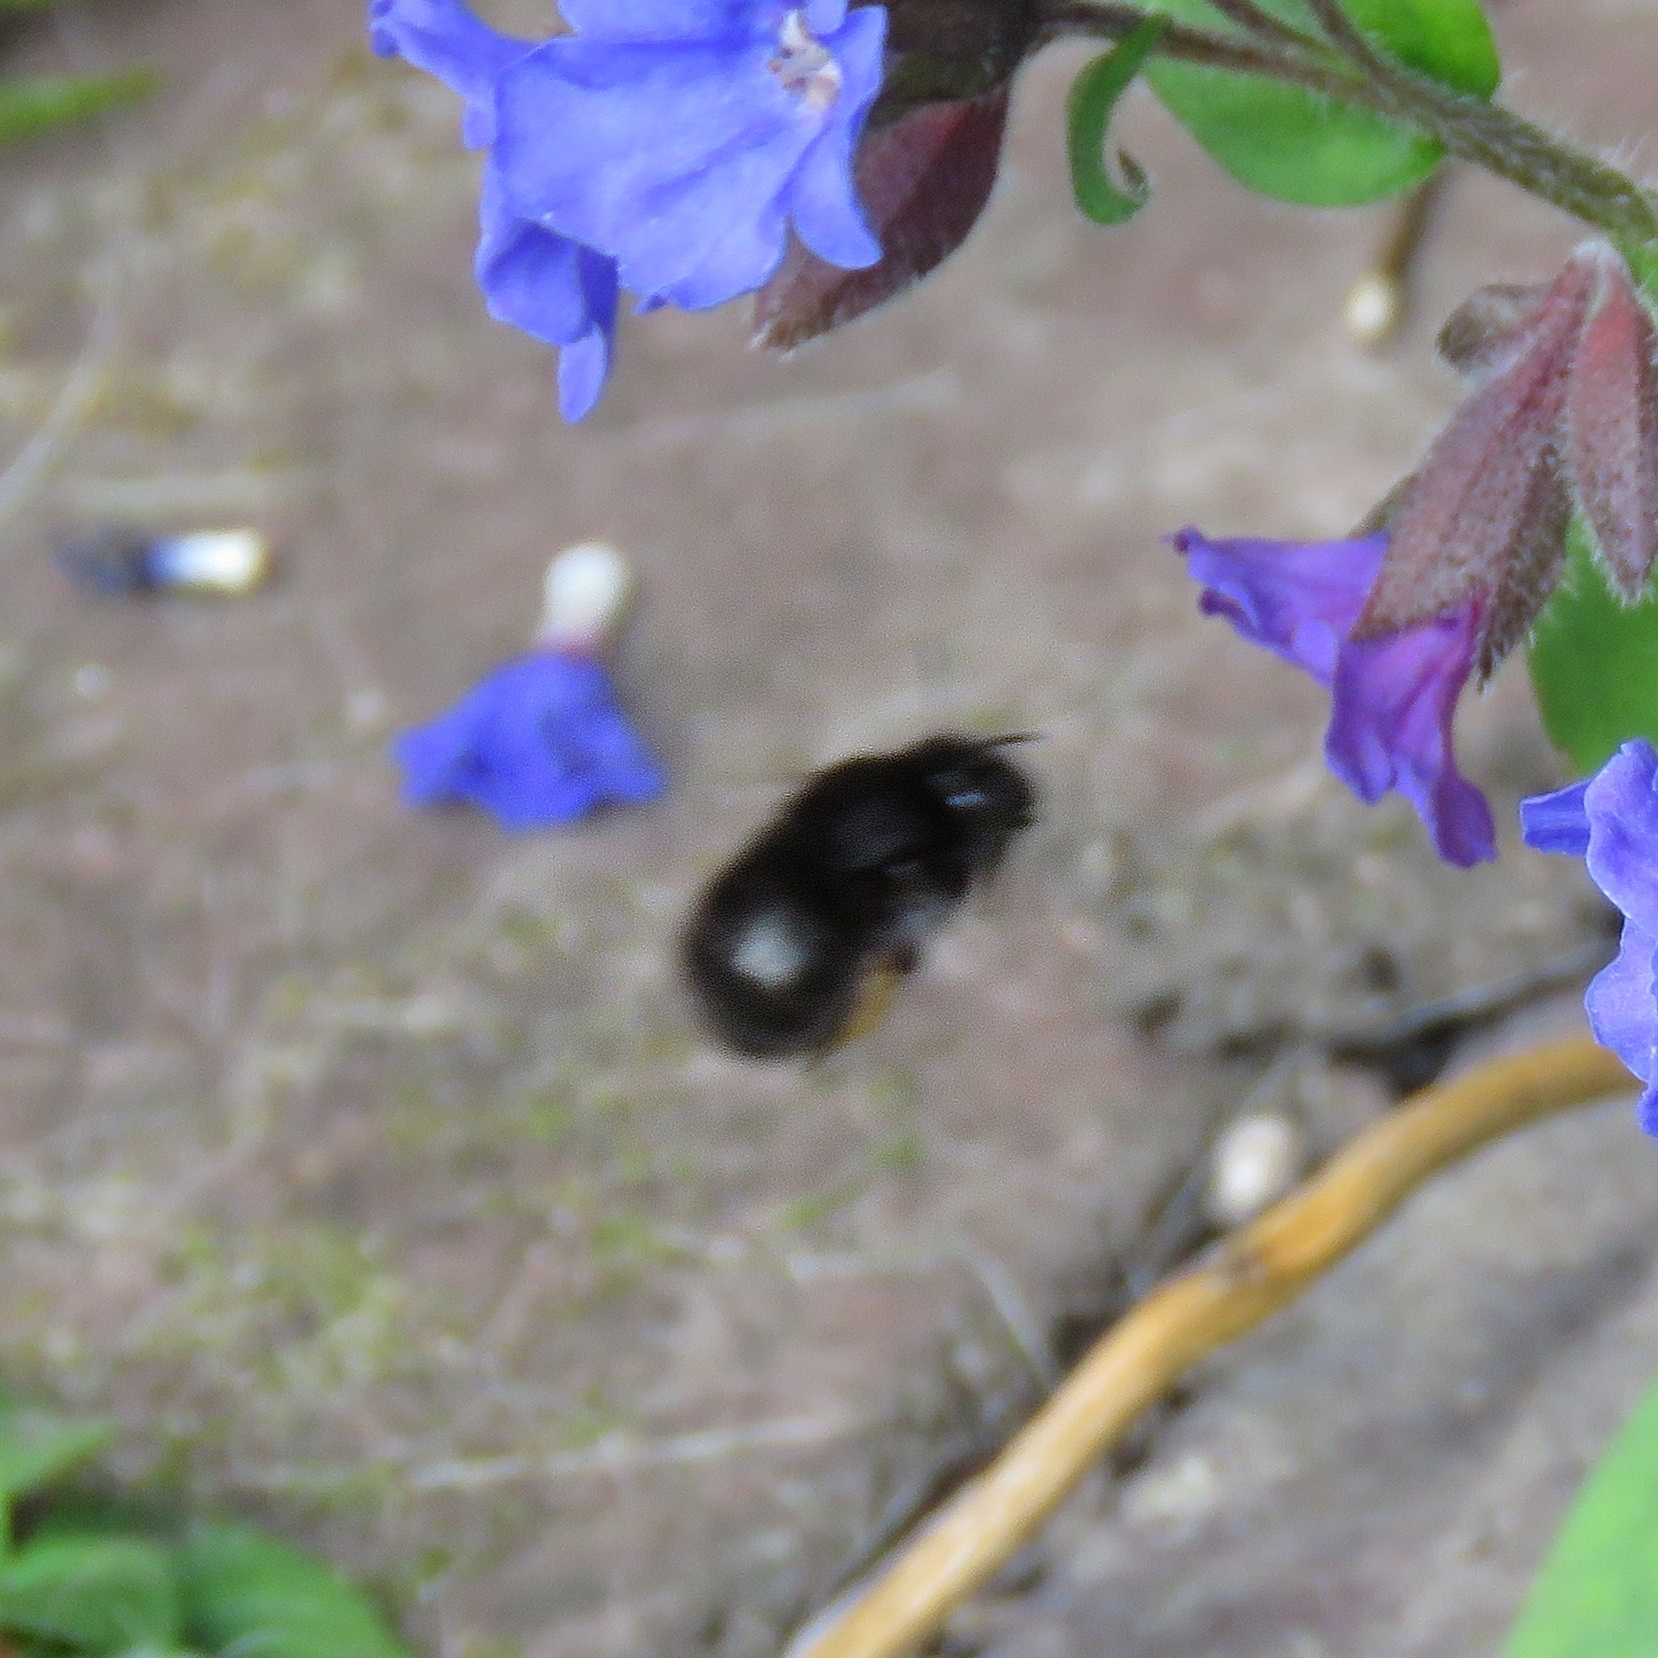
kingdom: Animalia
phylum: Arthropoda
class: Insecta
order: Hymenoptera
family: Apidae
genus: Anthophora
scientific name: Anthophora plumipes
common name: Hairy-footed flower bee
